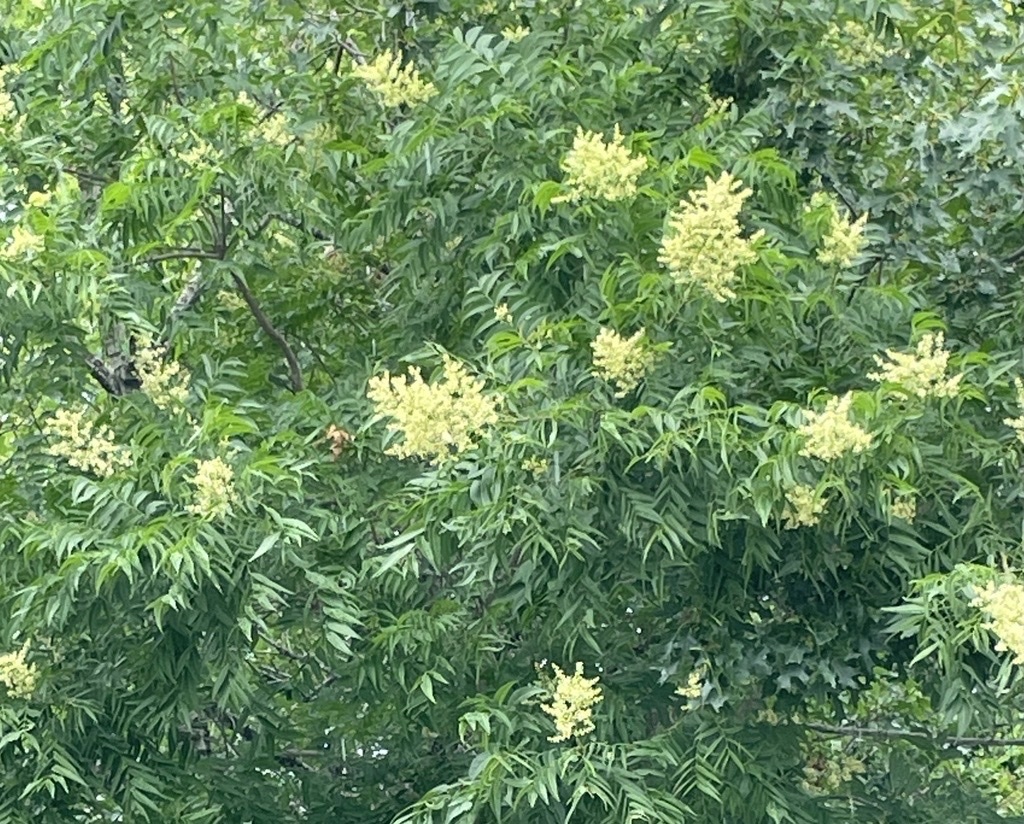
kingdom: Plantae
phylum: Tracheophyta
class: Magnoliopsida
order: Sapindales
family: Sapindaceae
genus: Sapindus
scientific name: Sapindus drummondii
